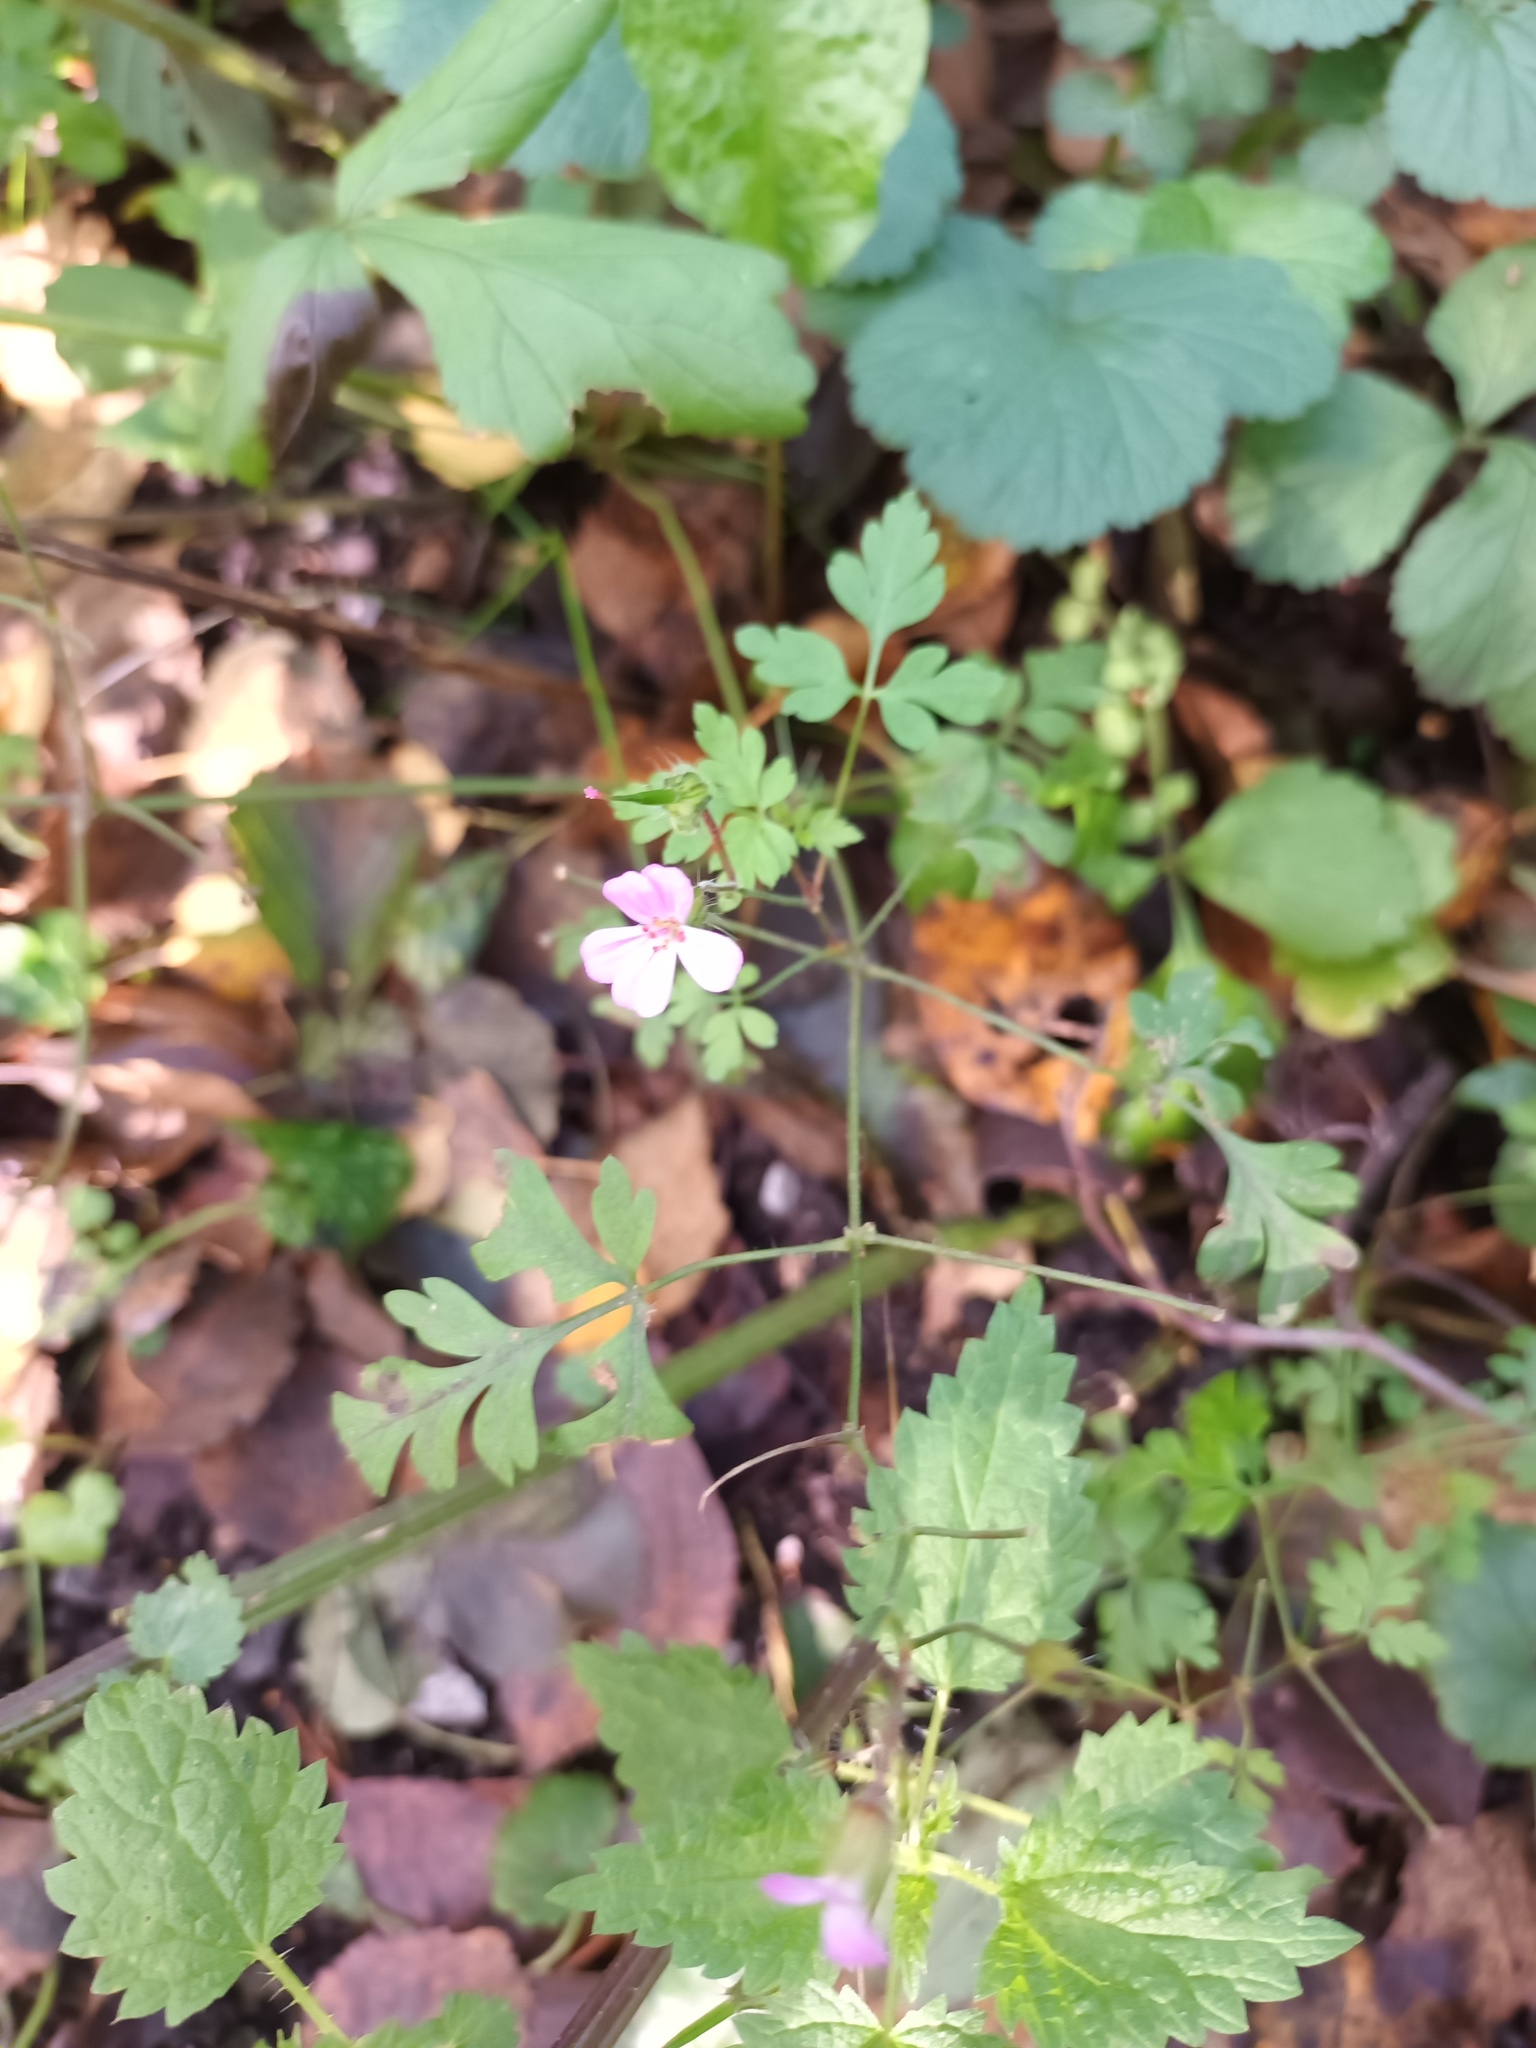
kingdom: Plantae
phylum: Tracheophyta
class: Magnoliopsida
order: Geraniales
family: Geraniaceae
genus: Geranium
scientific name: Geranium robertianum
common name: Herb-robert
